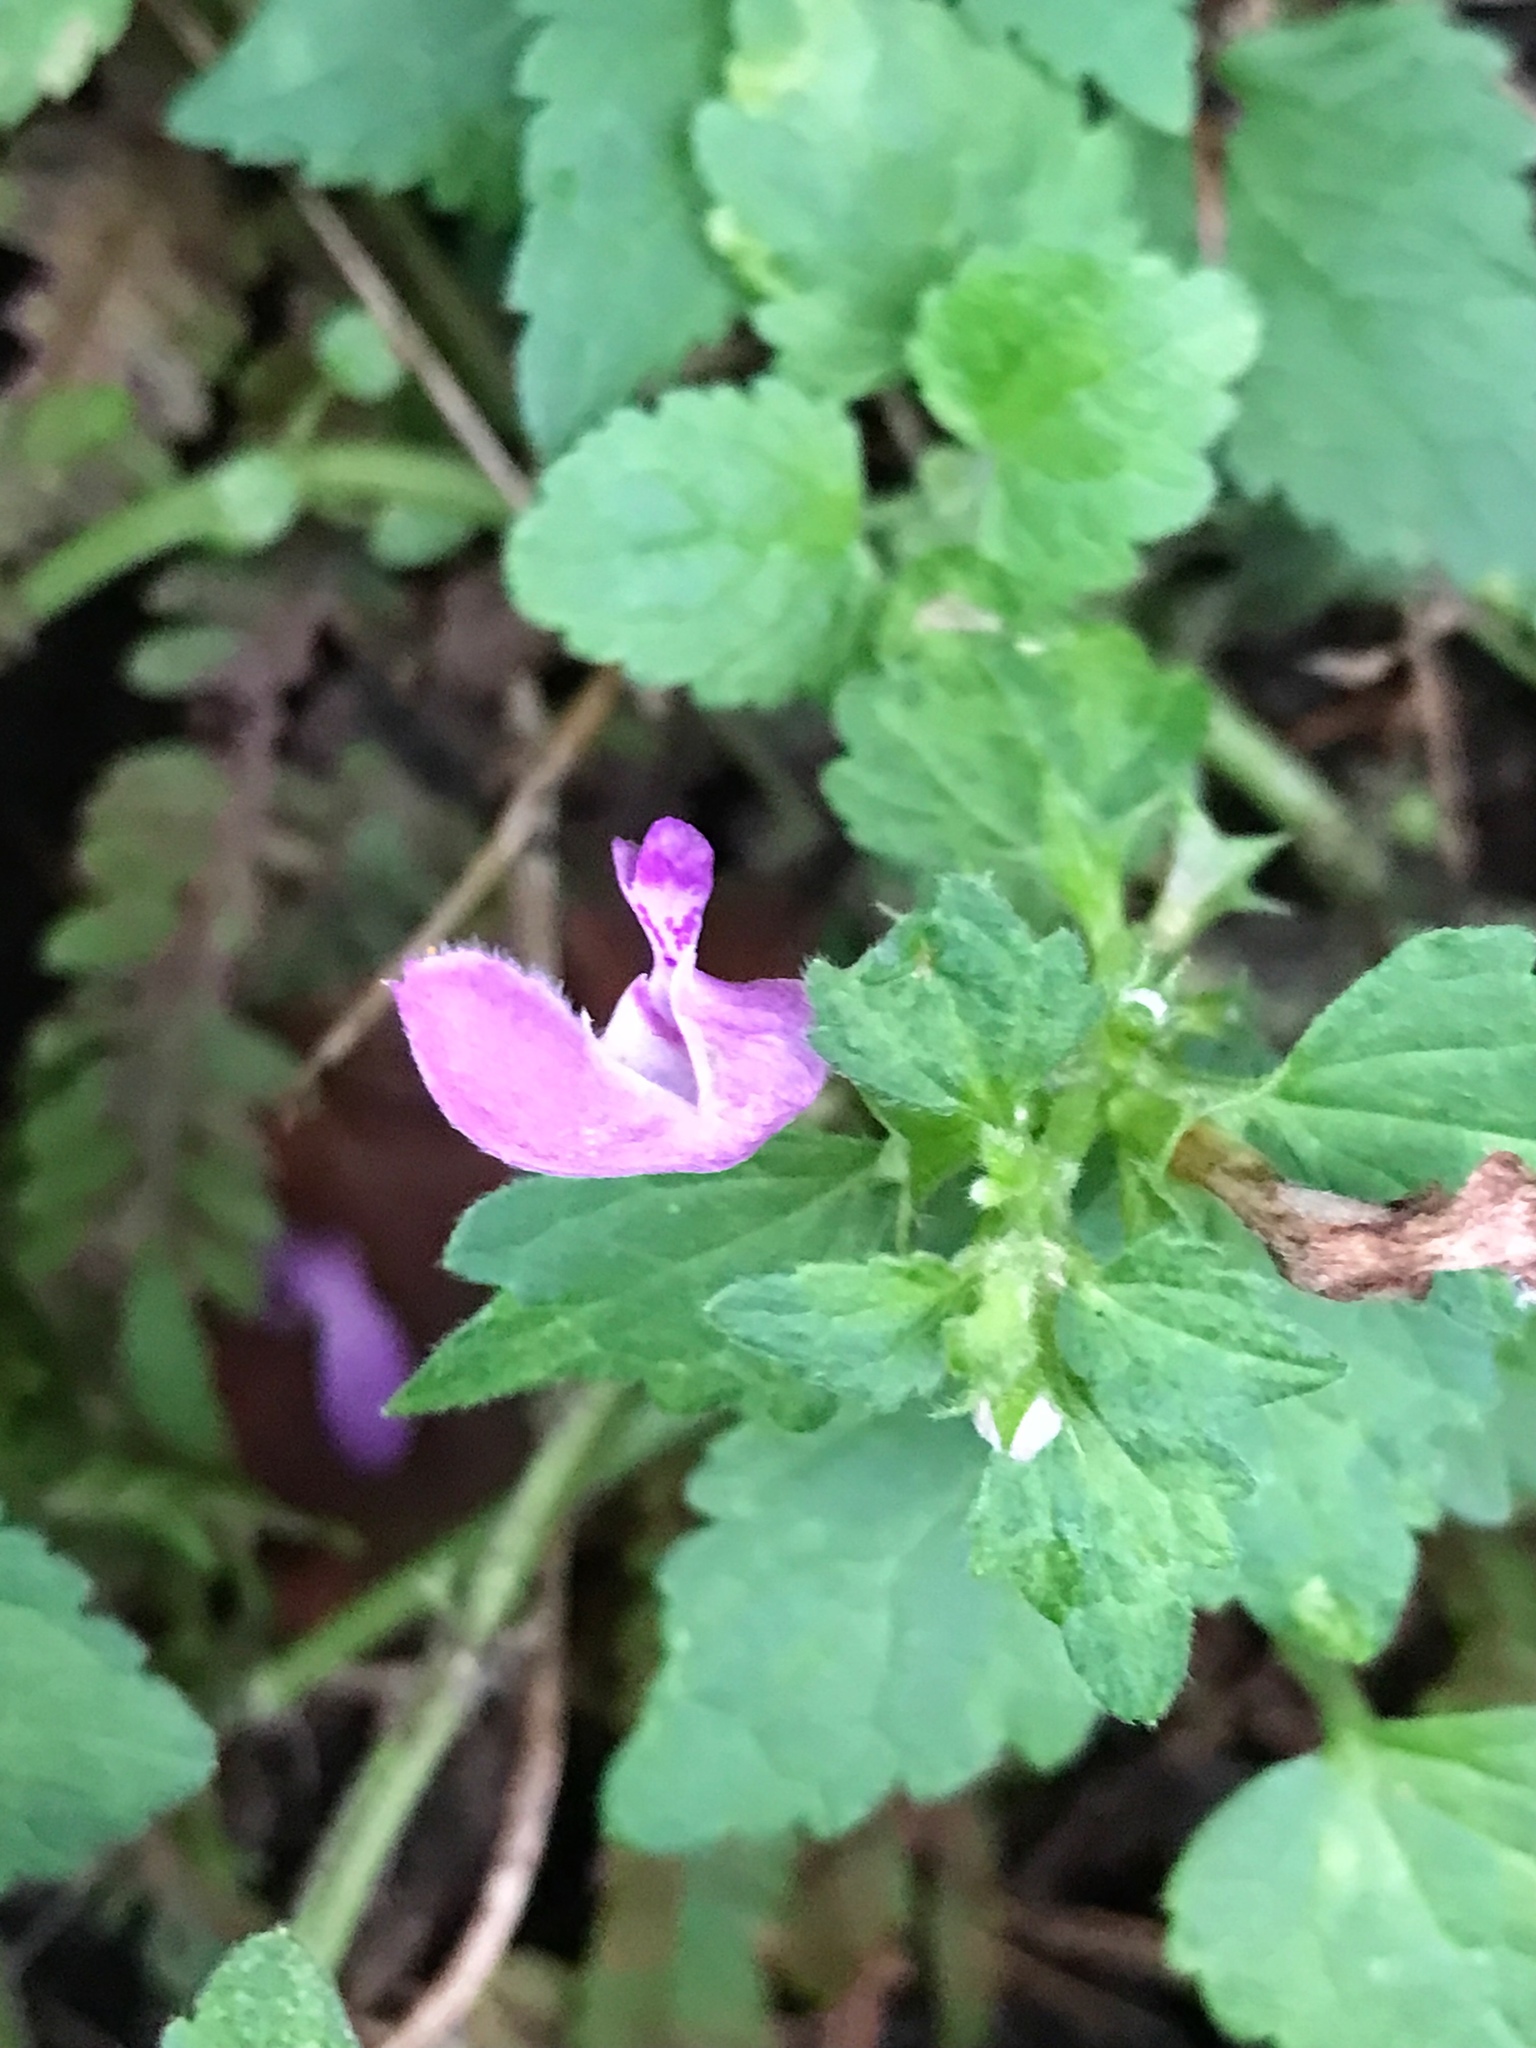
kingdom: Plantae
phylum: Tracheophyta
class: Magnoliopsida
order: Lamiales
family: Lamiaceae
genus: Lamium
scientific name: Lamium maculatum
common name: Spotted dead-nettle
